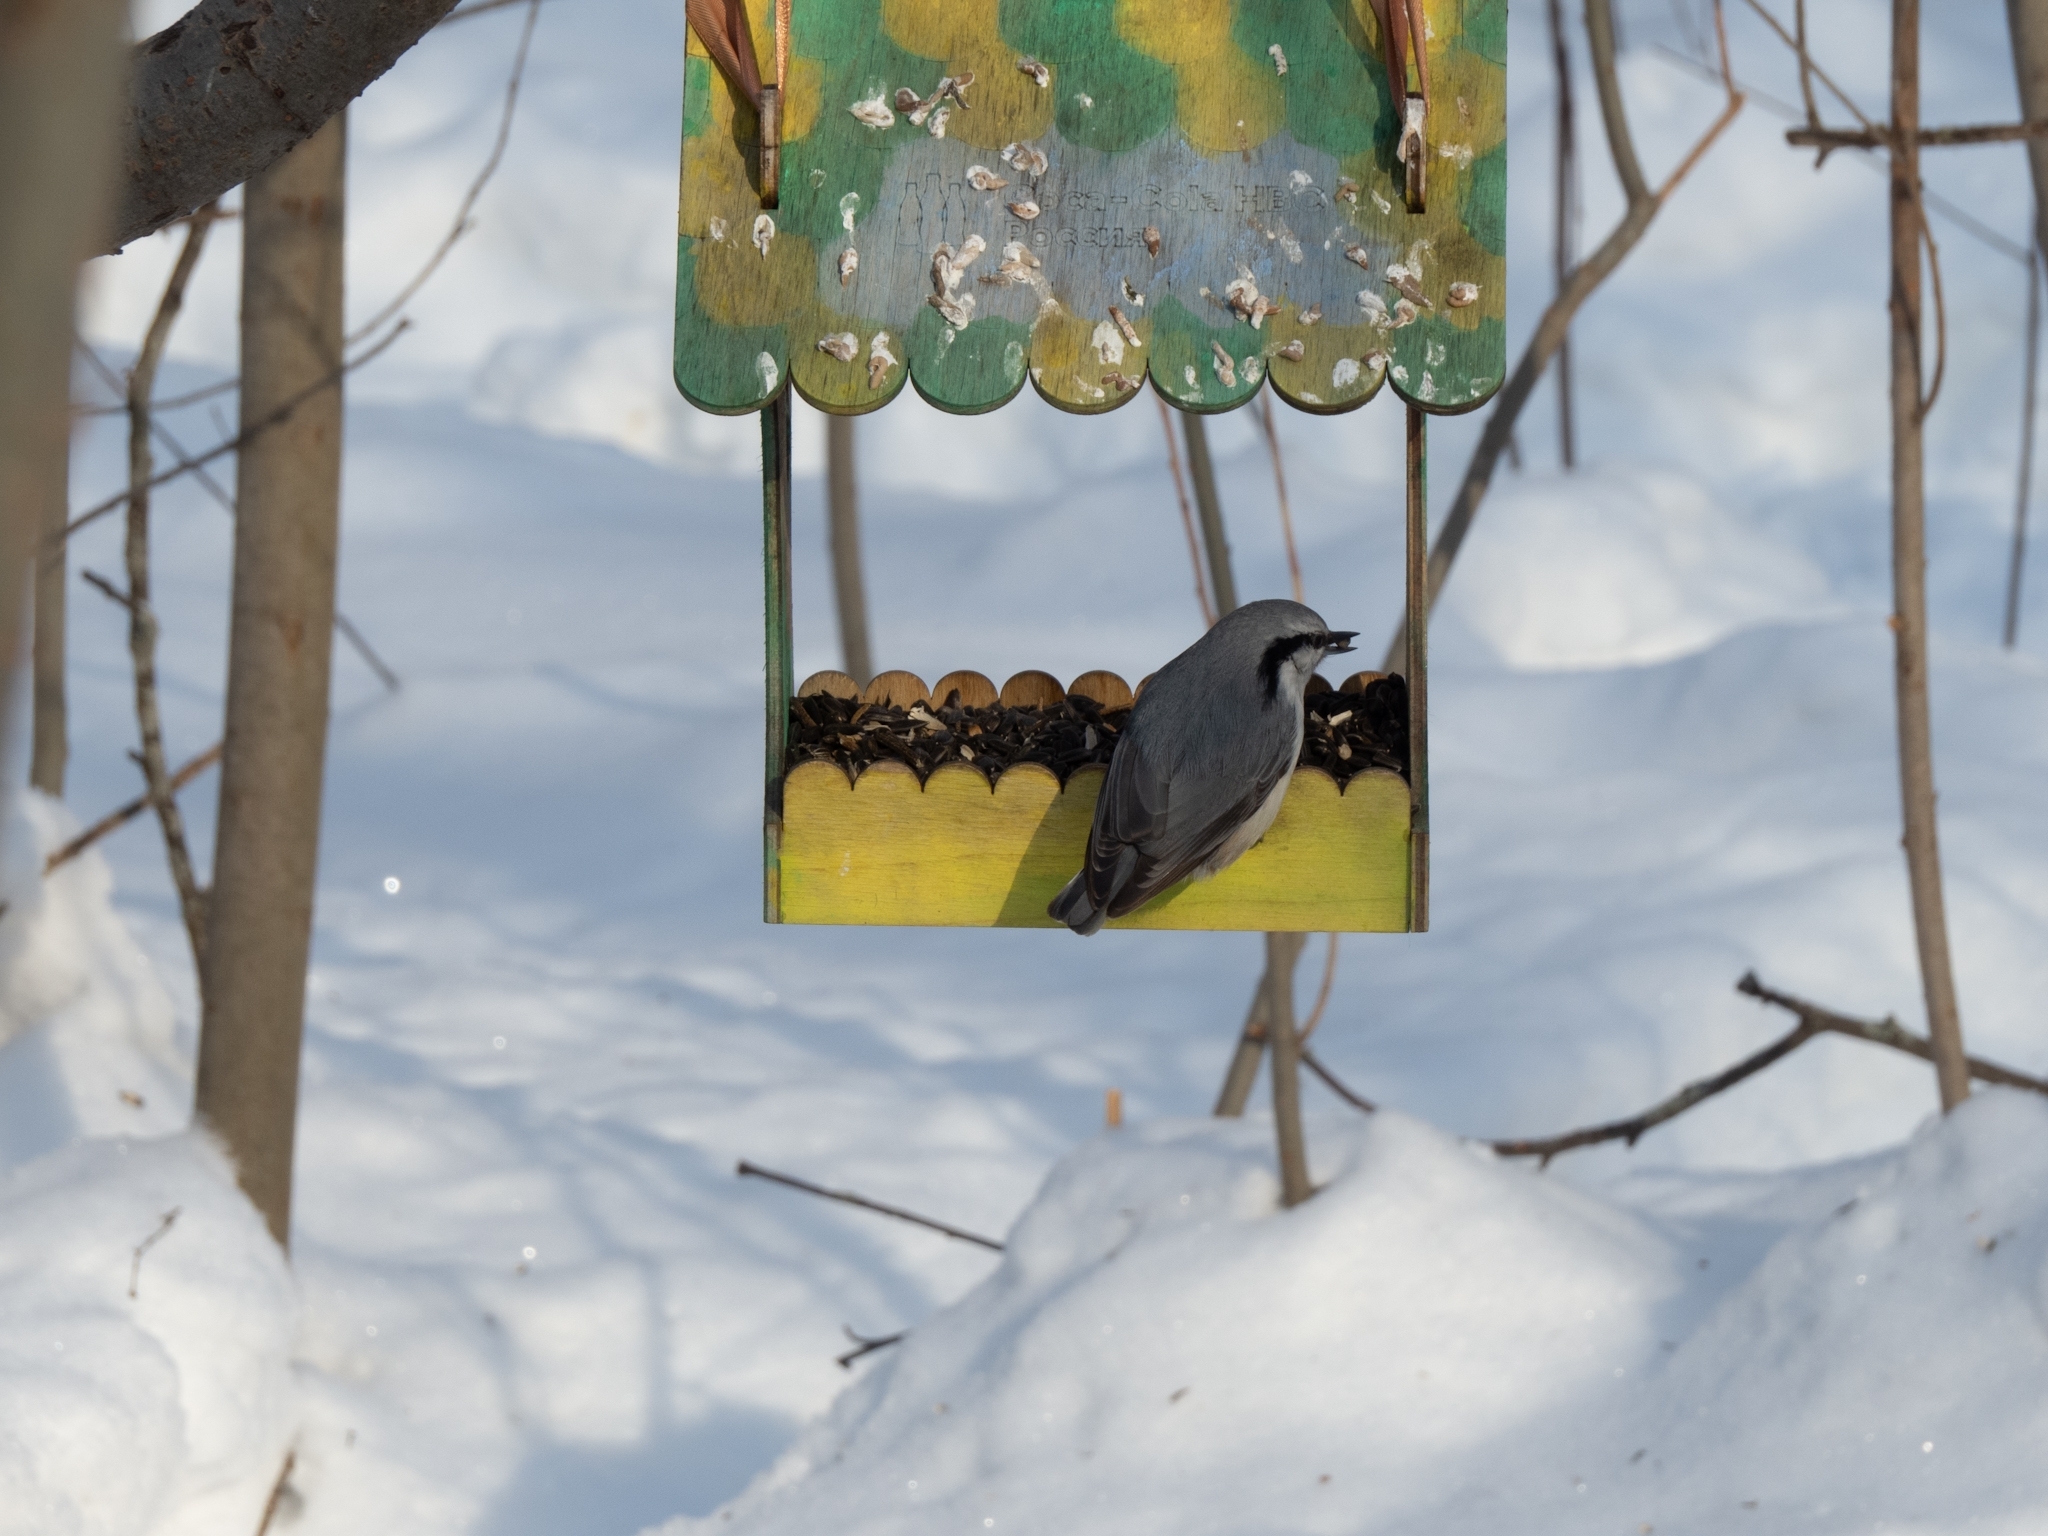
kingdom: Animalia
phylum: Chordata
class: Aves
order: Passeriformes
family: Sittidae
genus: Sitta
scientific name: Sitta europaea
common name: Eurasian nuthatch
